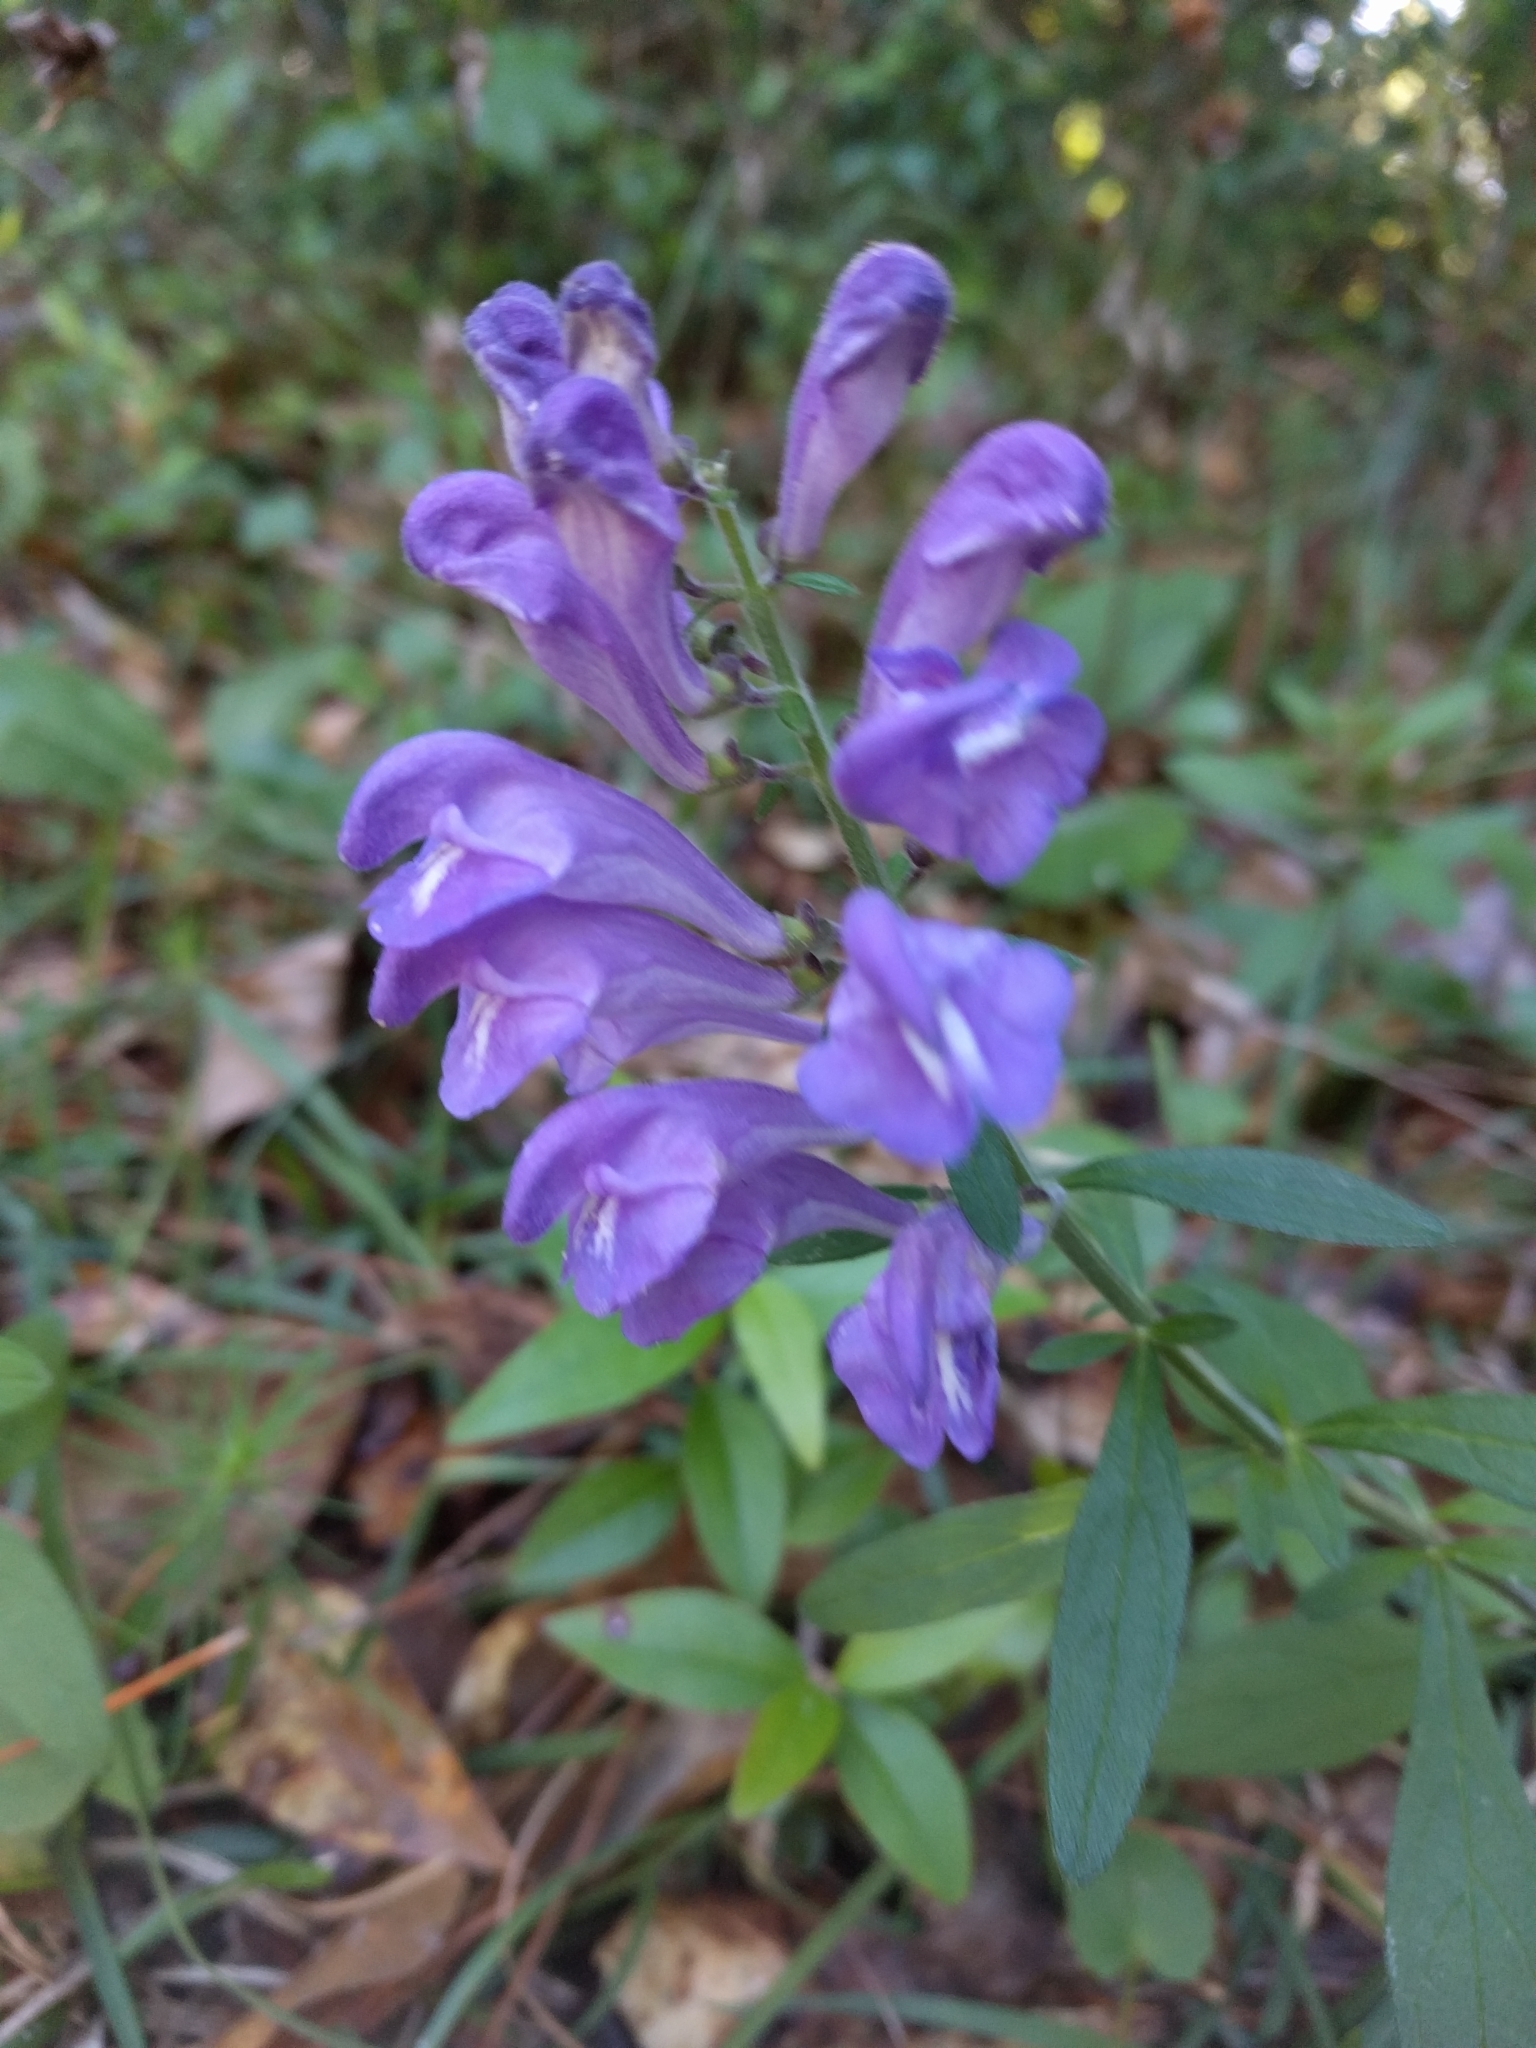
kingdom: Plantae
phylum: Tracheophyta
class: Magnoliopsida
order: Lamiales
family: Lamiaceae
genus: Scutellaria
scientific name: Scutellaria integrifolia
